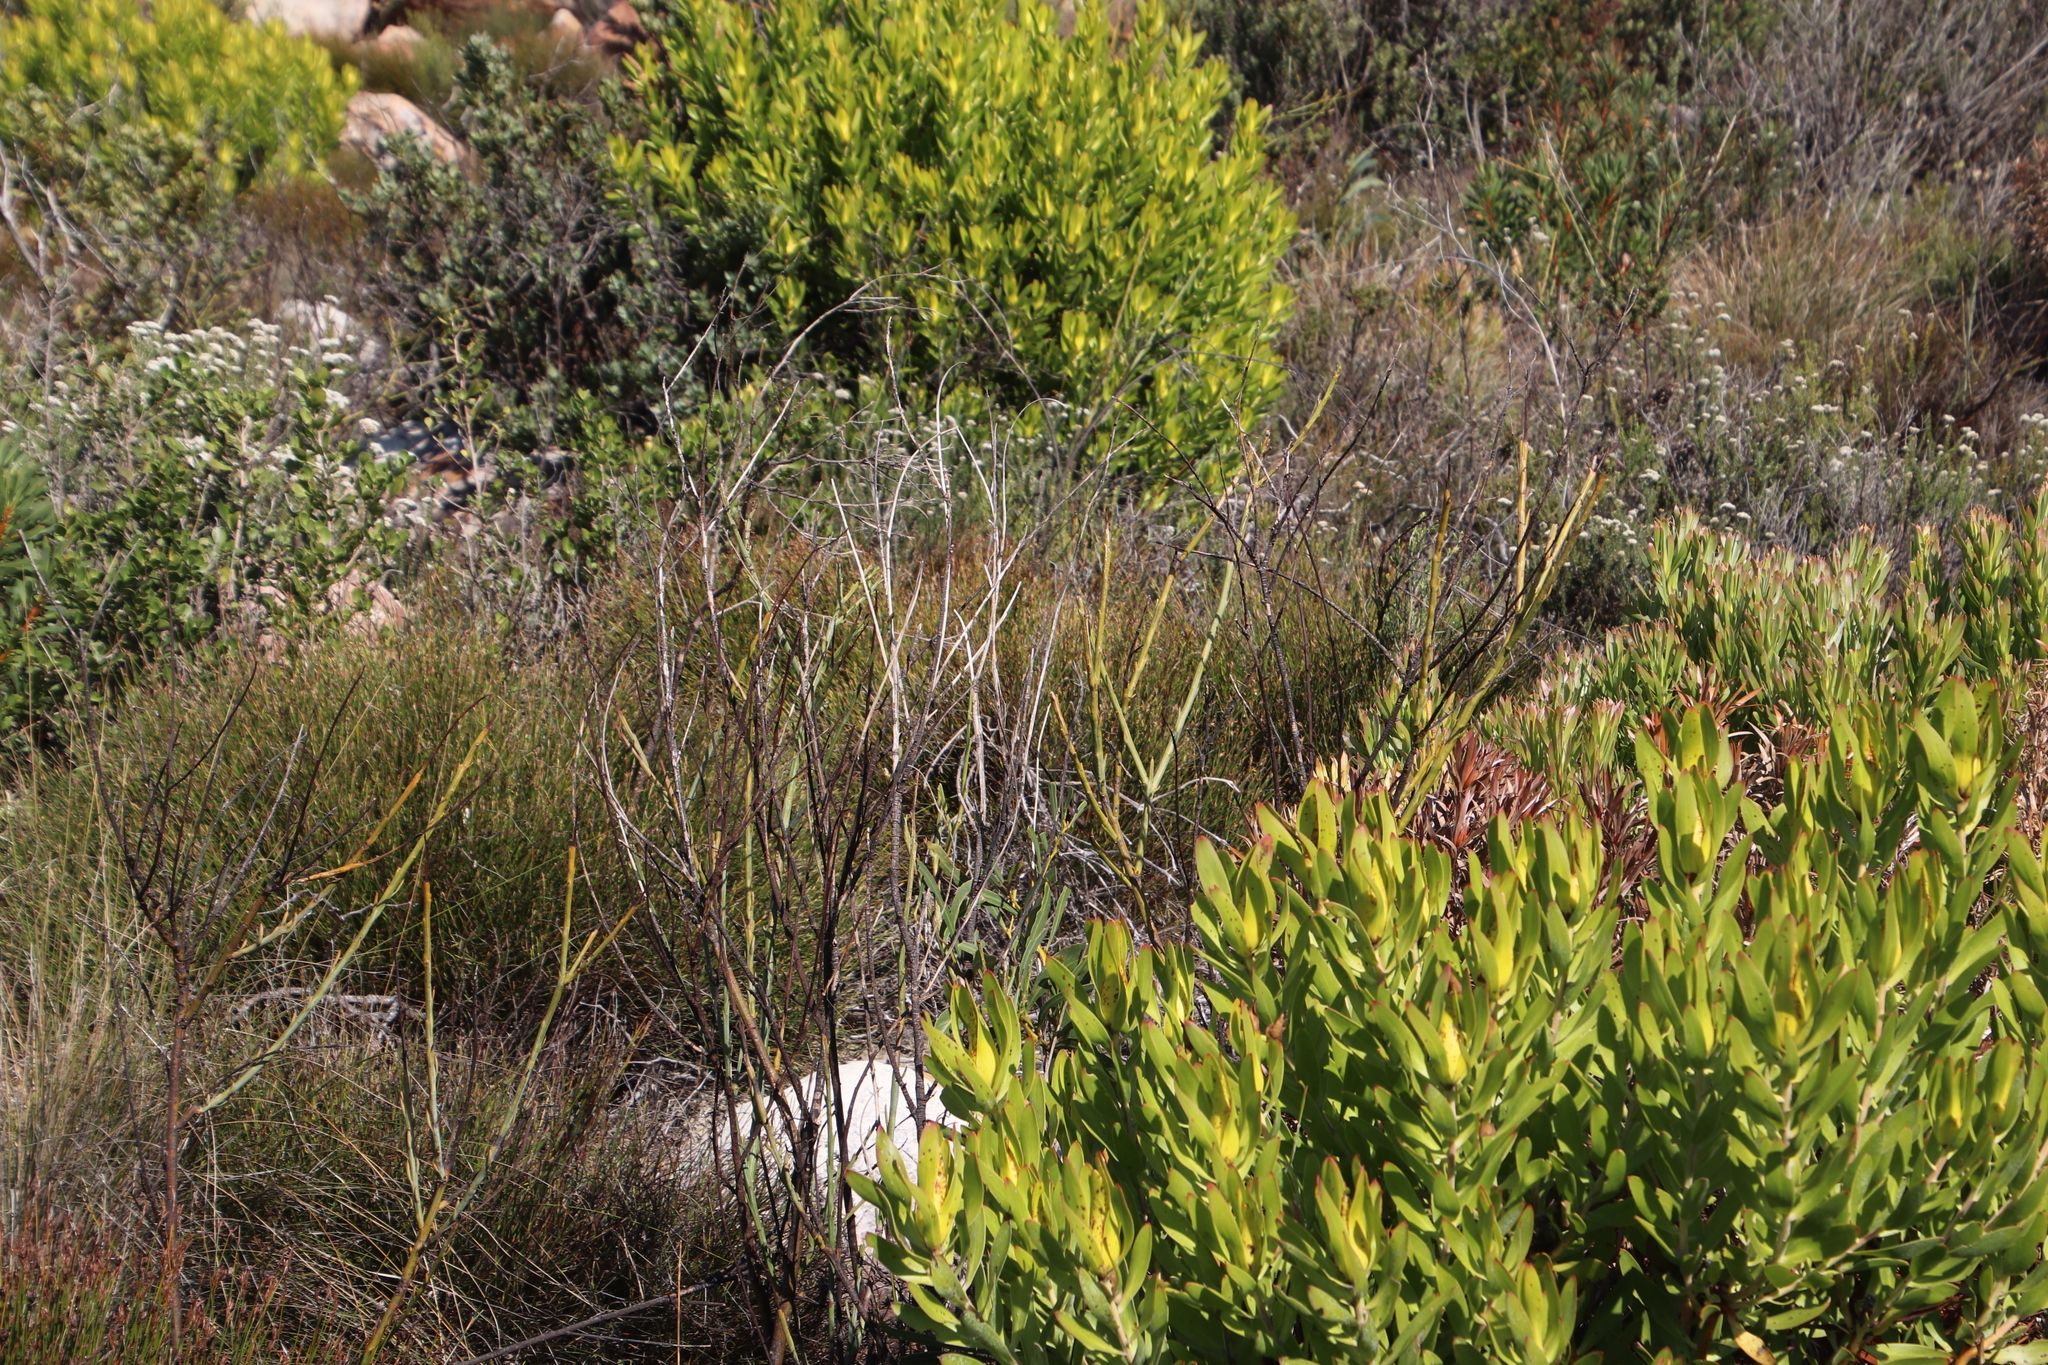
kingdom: Plantae
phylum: Tracheophyta
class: Magnoliopsida
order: Santalales
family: Thesiaceae
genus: Thesium
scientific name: Thesium strictum
